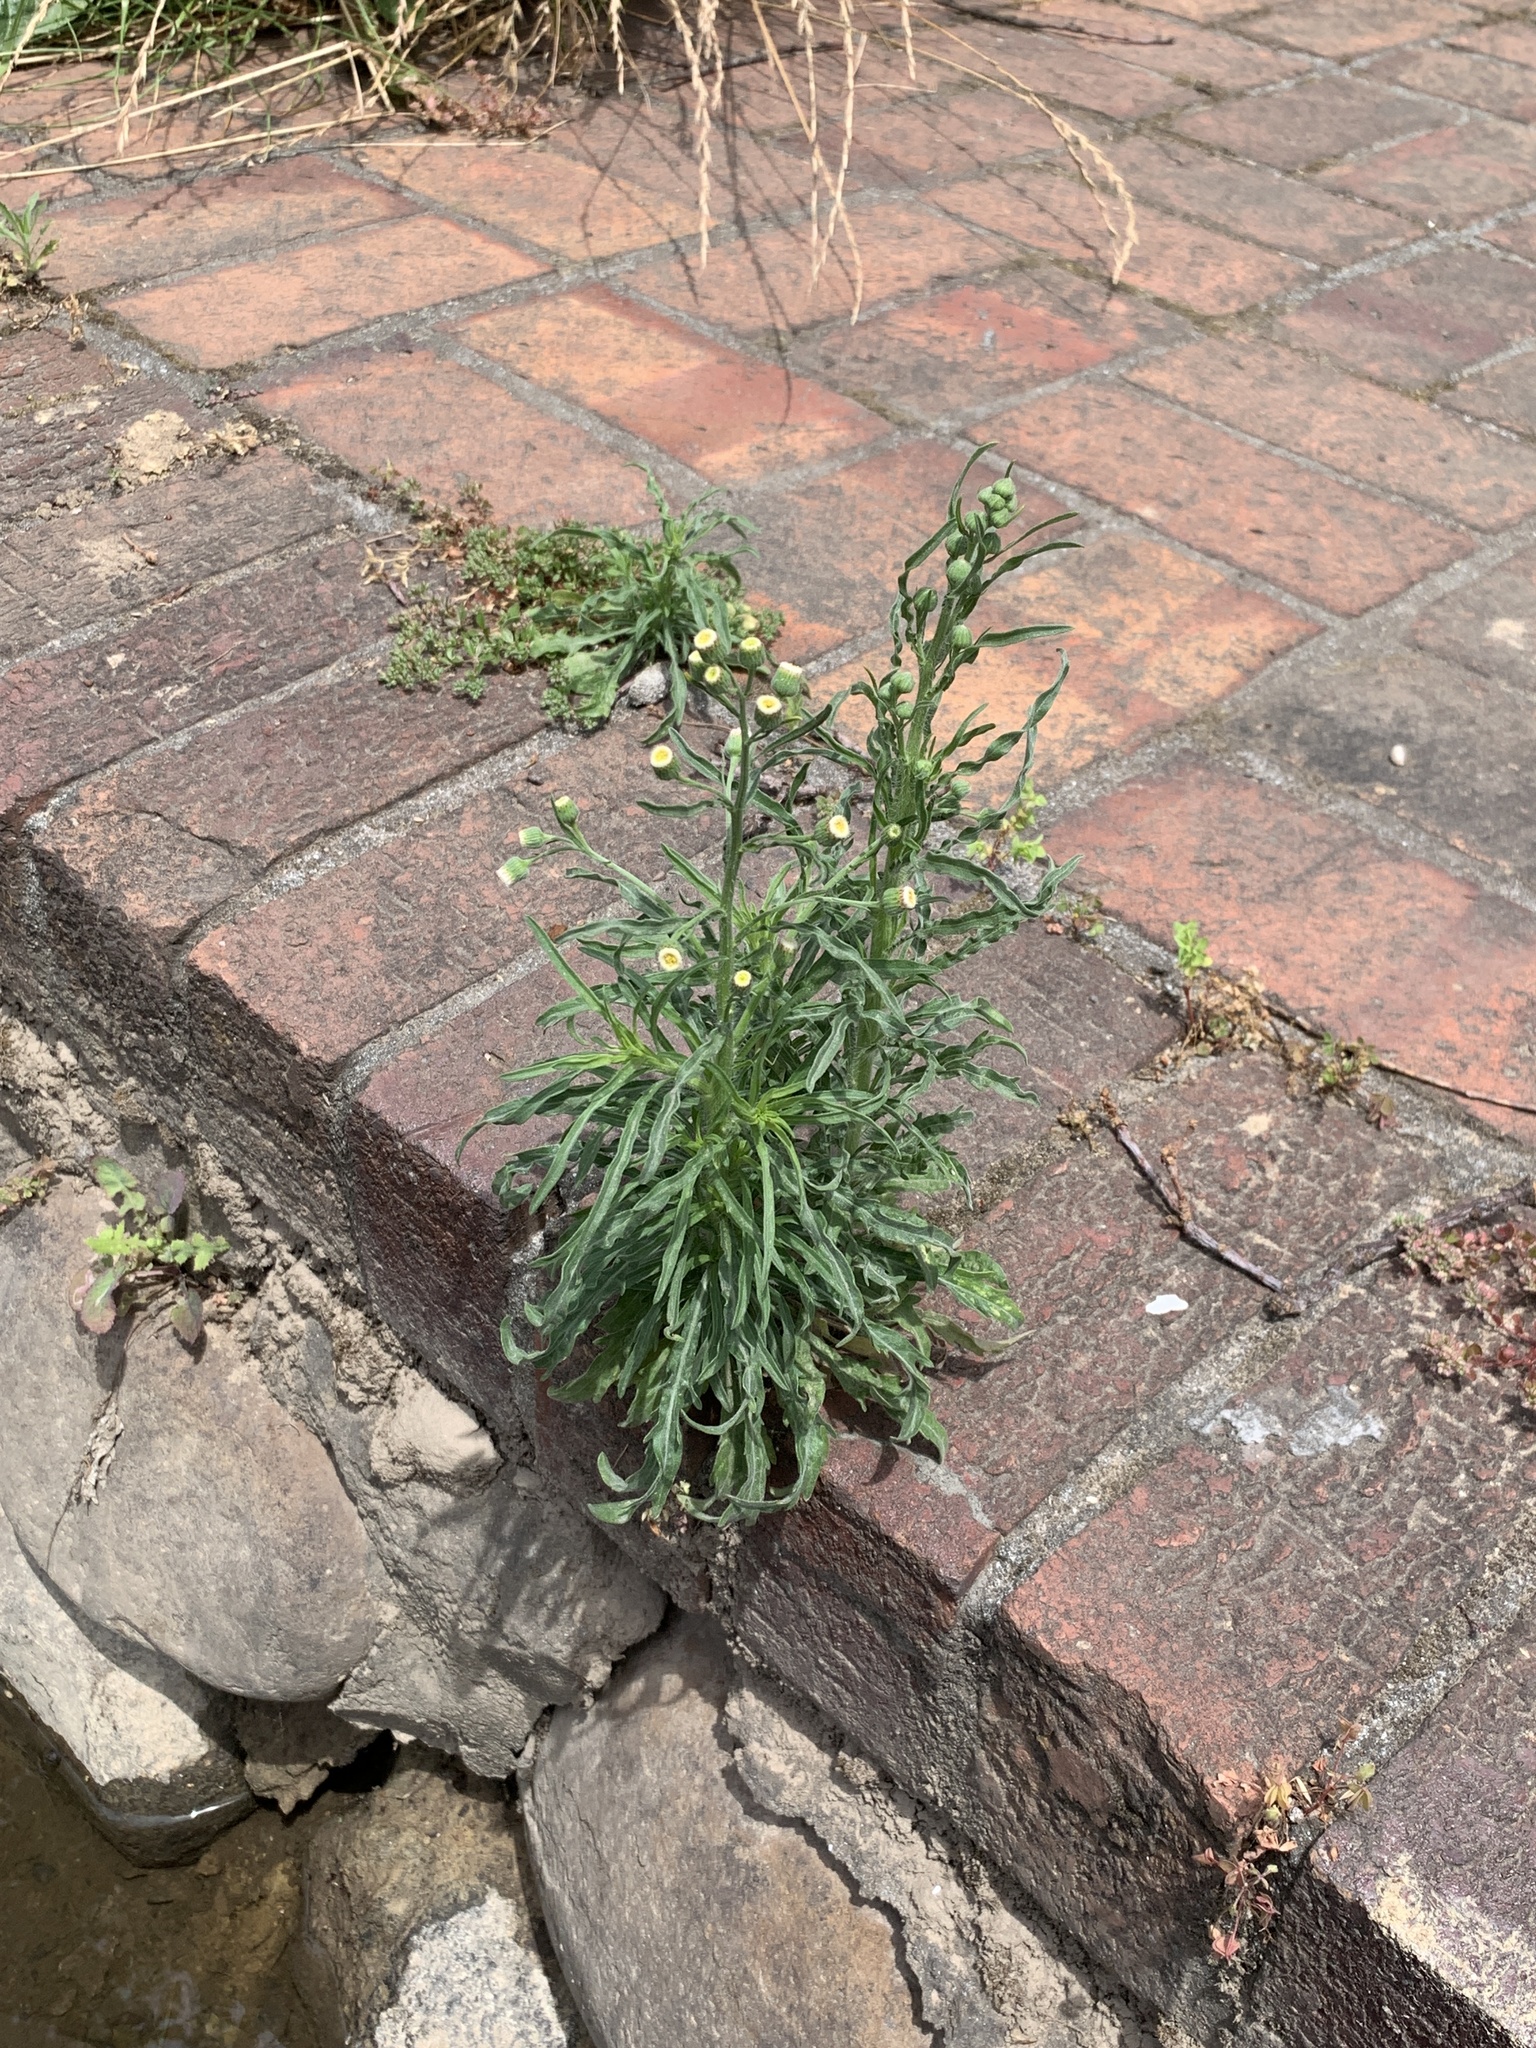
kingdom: Plantae
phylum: Tracheophyta
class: Magnoliopsida
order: Asterales
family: Asteraceae
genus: Erigeron
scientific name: Erigeron bonariensis
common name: Argentine fleabane
